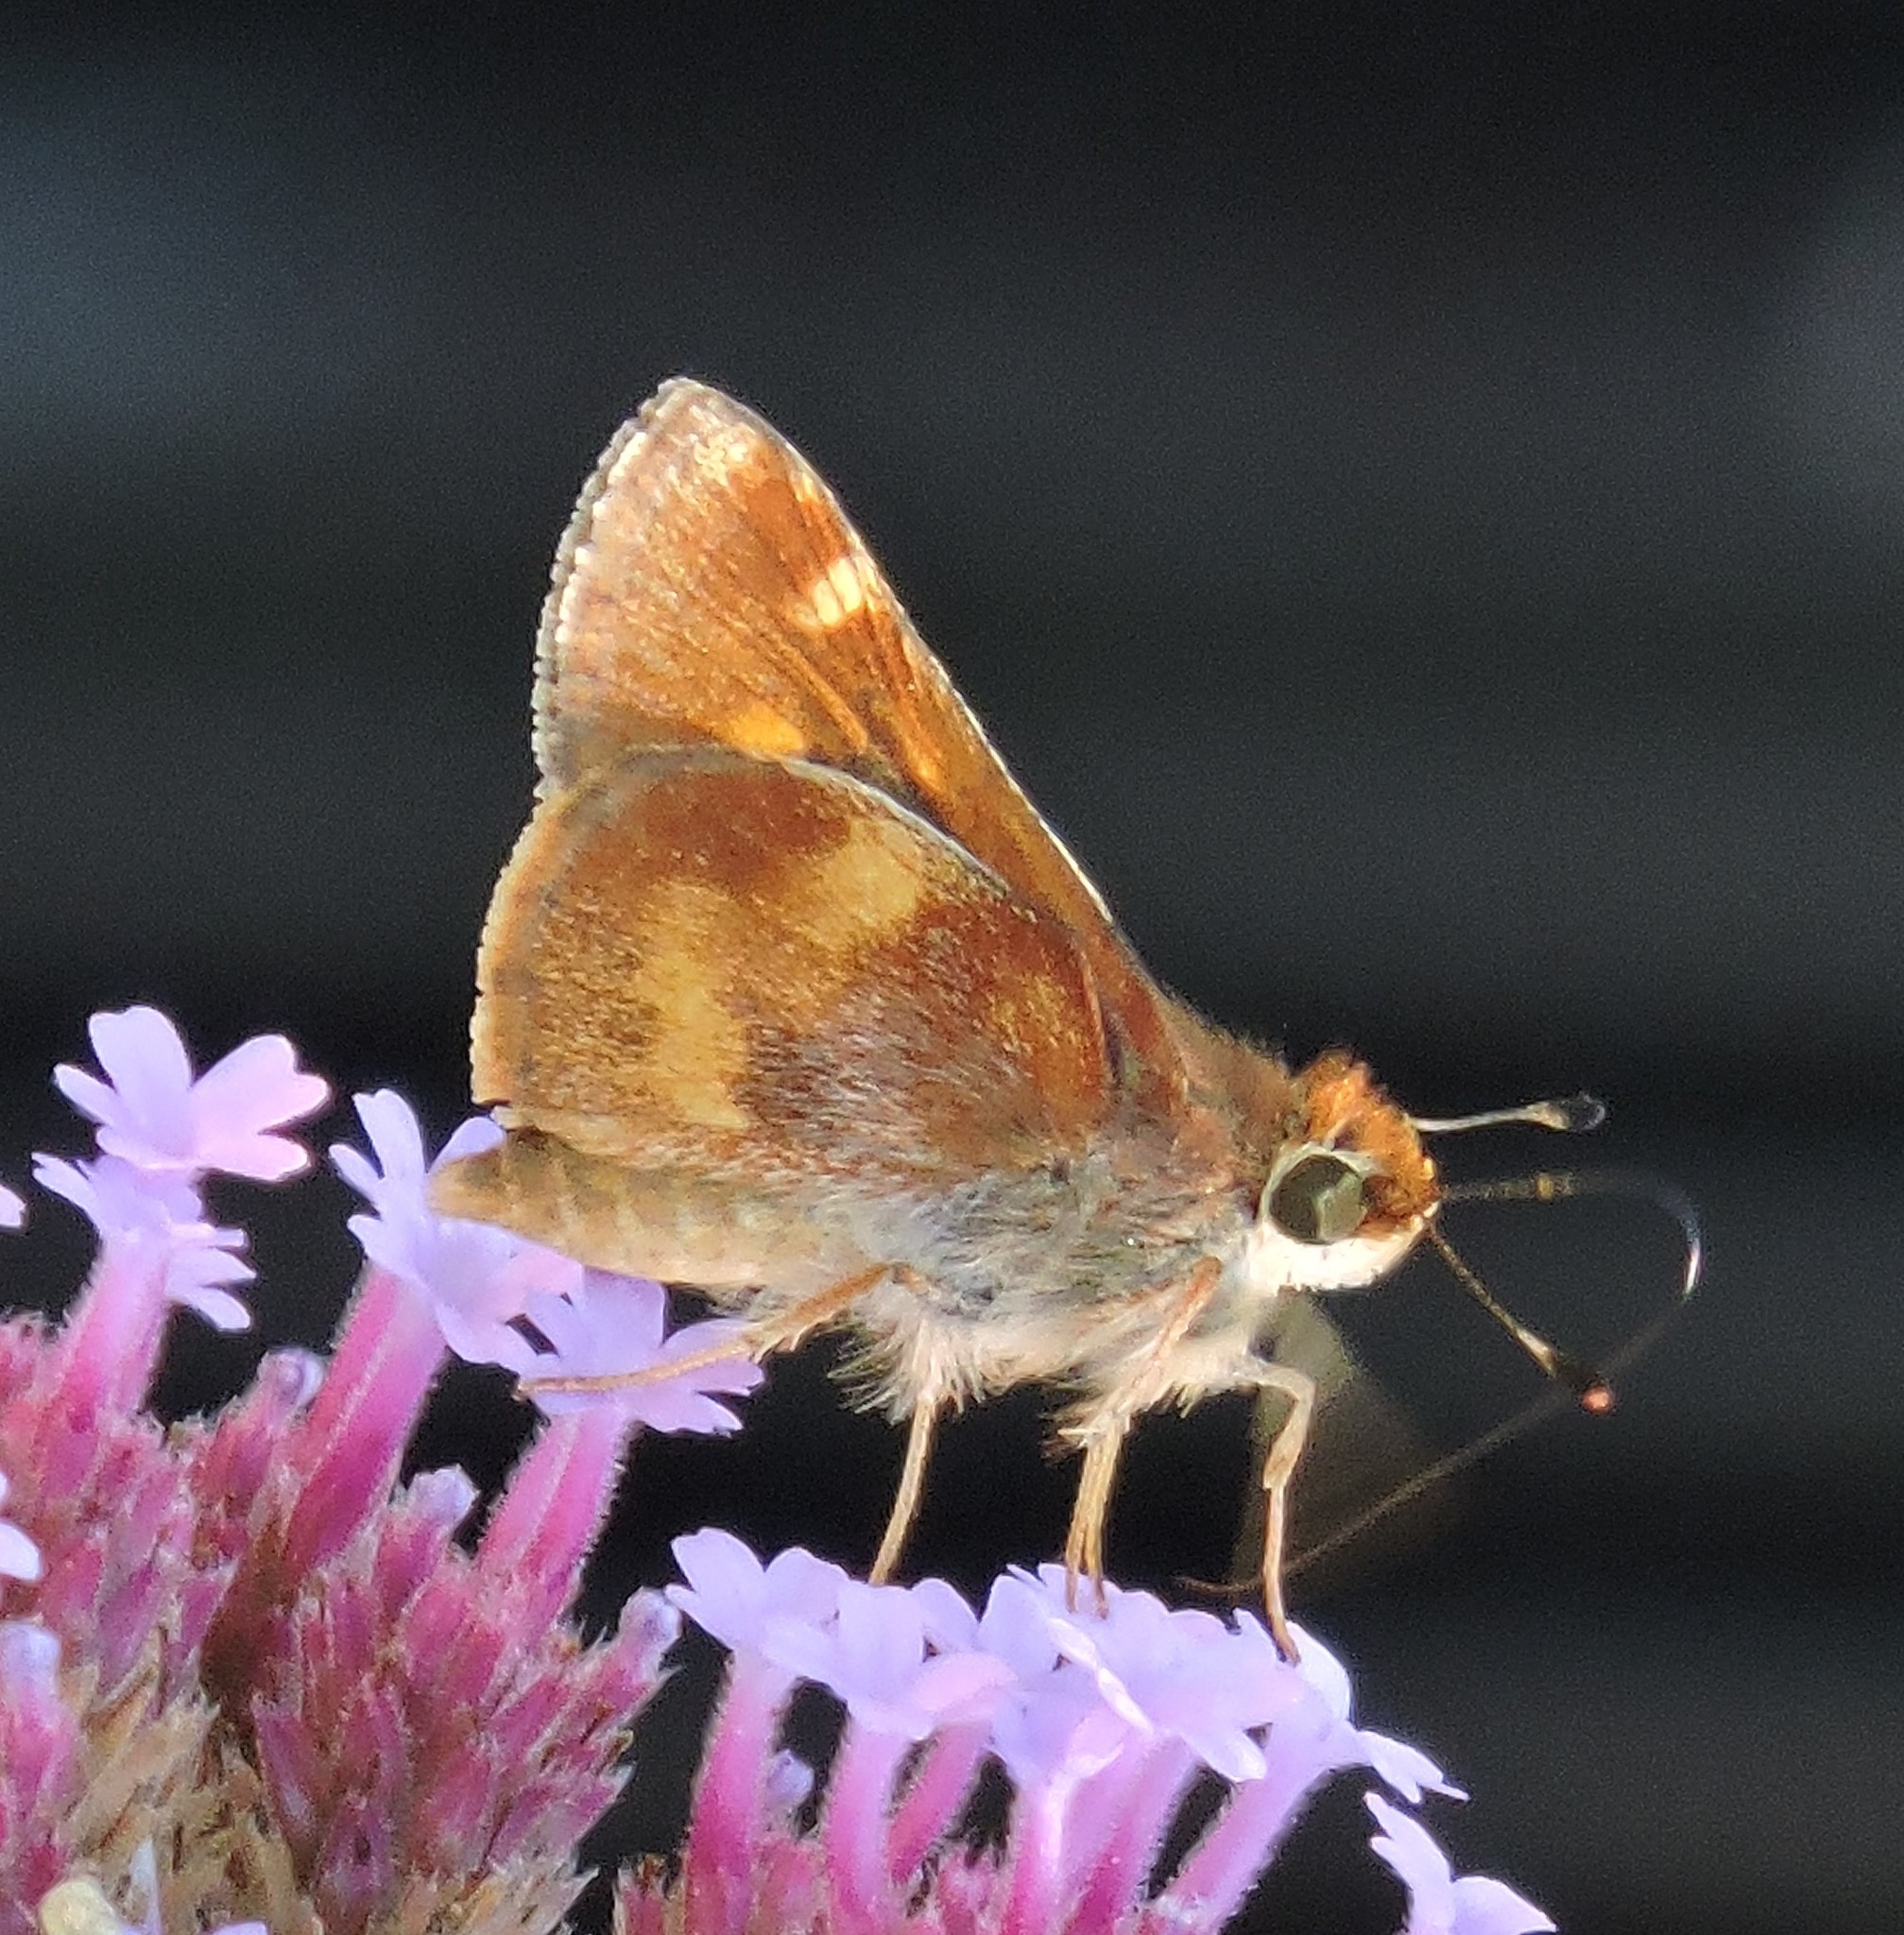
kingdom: Animalia
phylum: Arthropoda
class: Insecta
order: Lepidoptera
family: Hesperiidae
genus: Lon
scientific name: Lon melane
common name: Umber skipper
